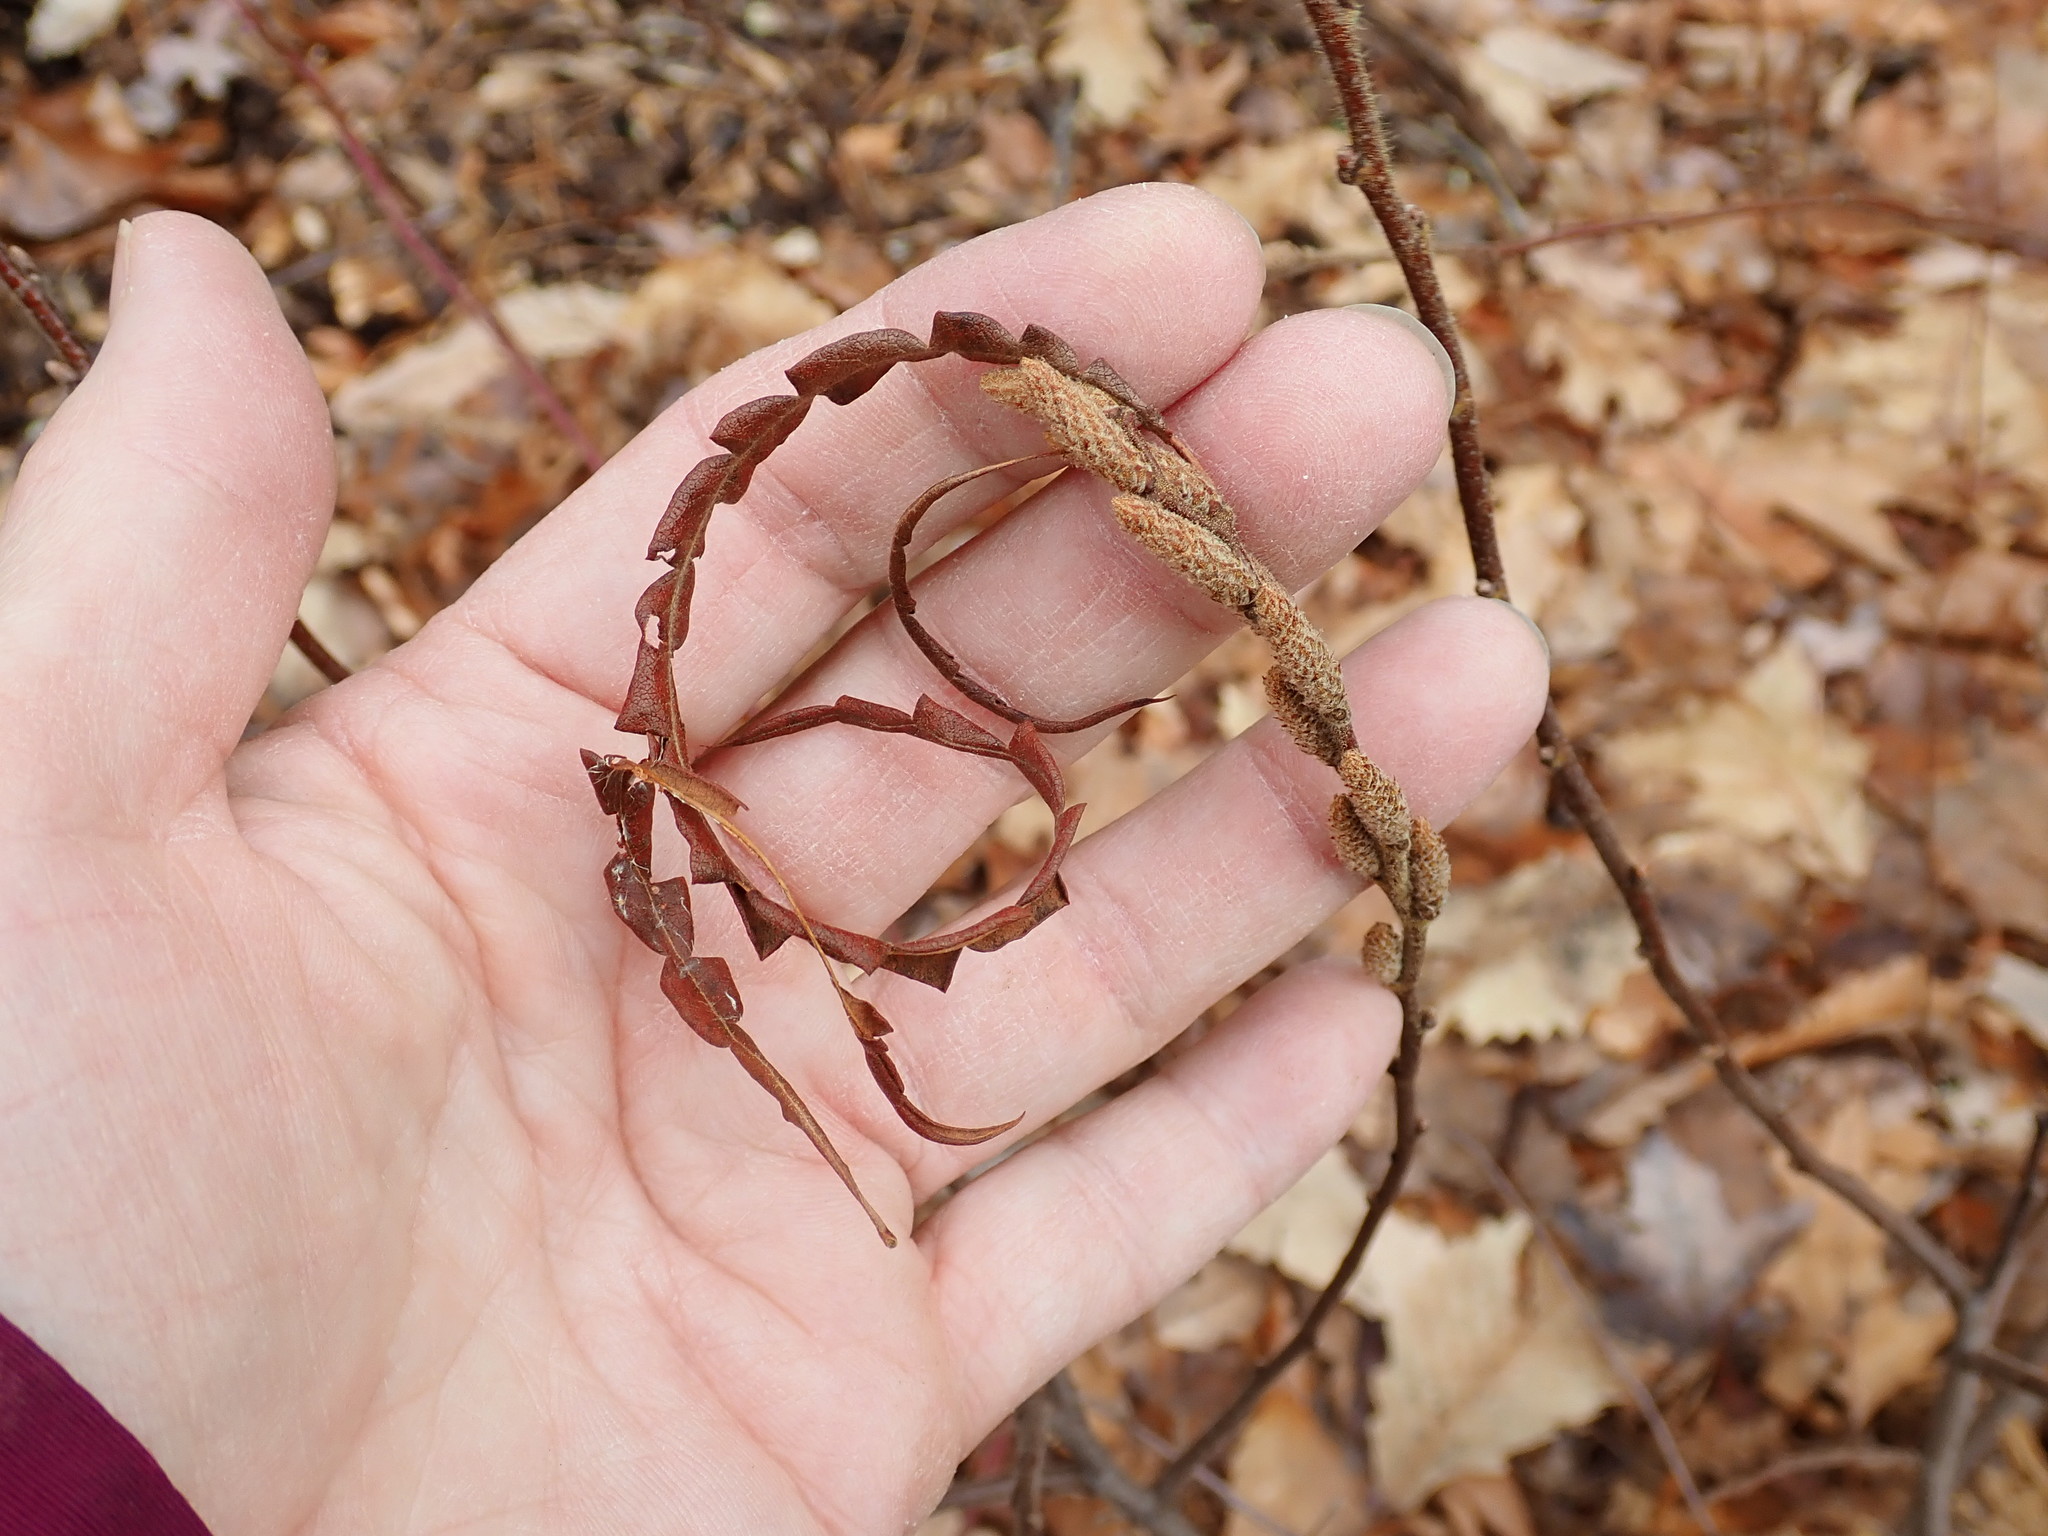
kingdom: Plantae
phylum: Tracheophyta
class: Magnoliopsida
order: Fagales
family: Myricaceae
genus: Comptonia
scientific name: Comptonia peregrina
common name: Sweet-fern
